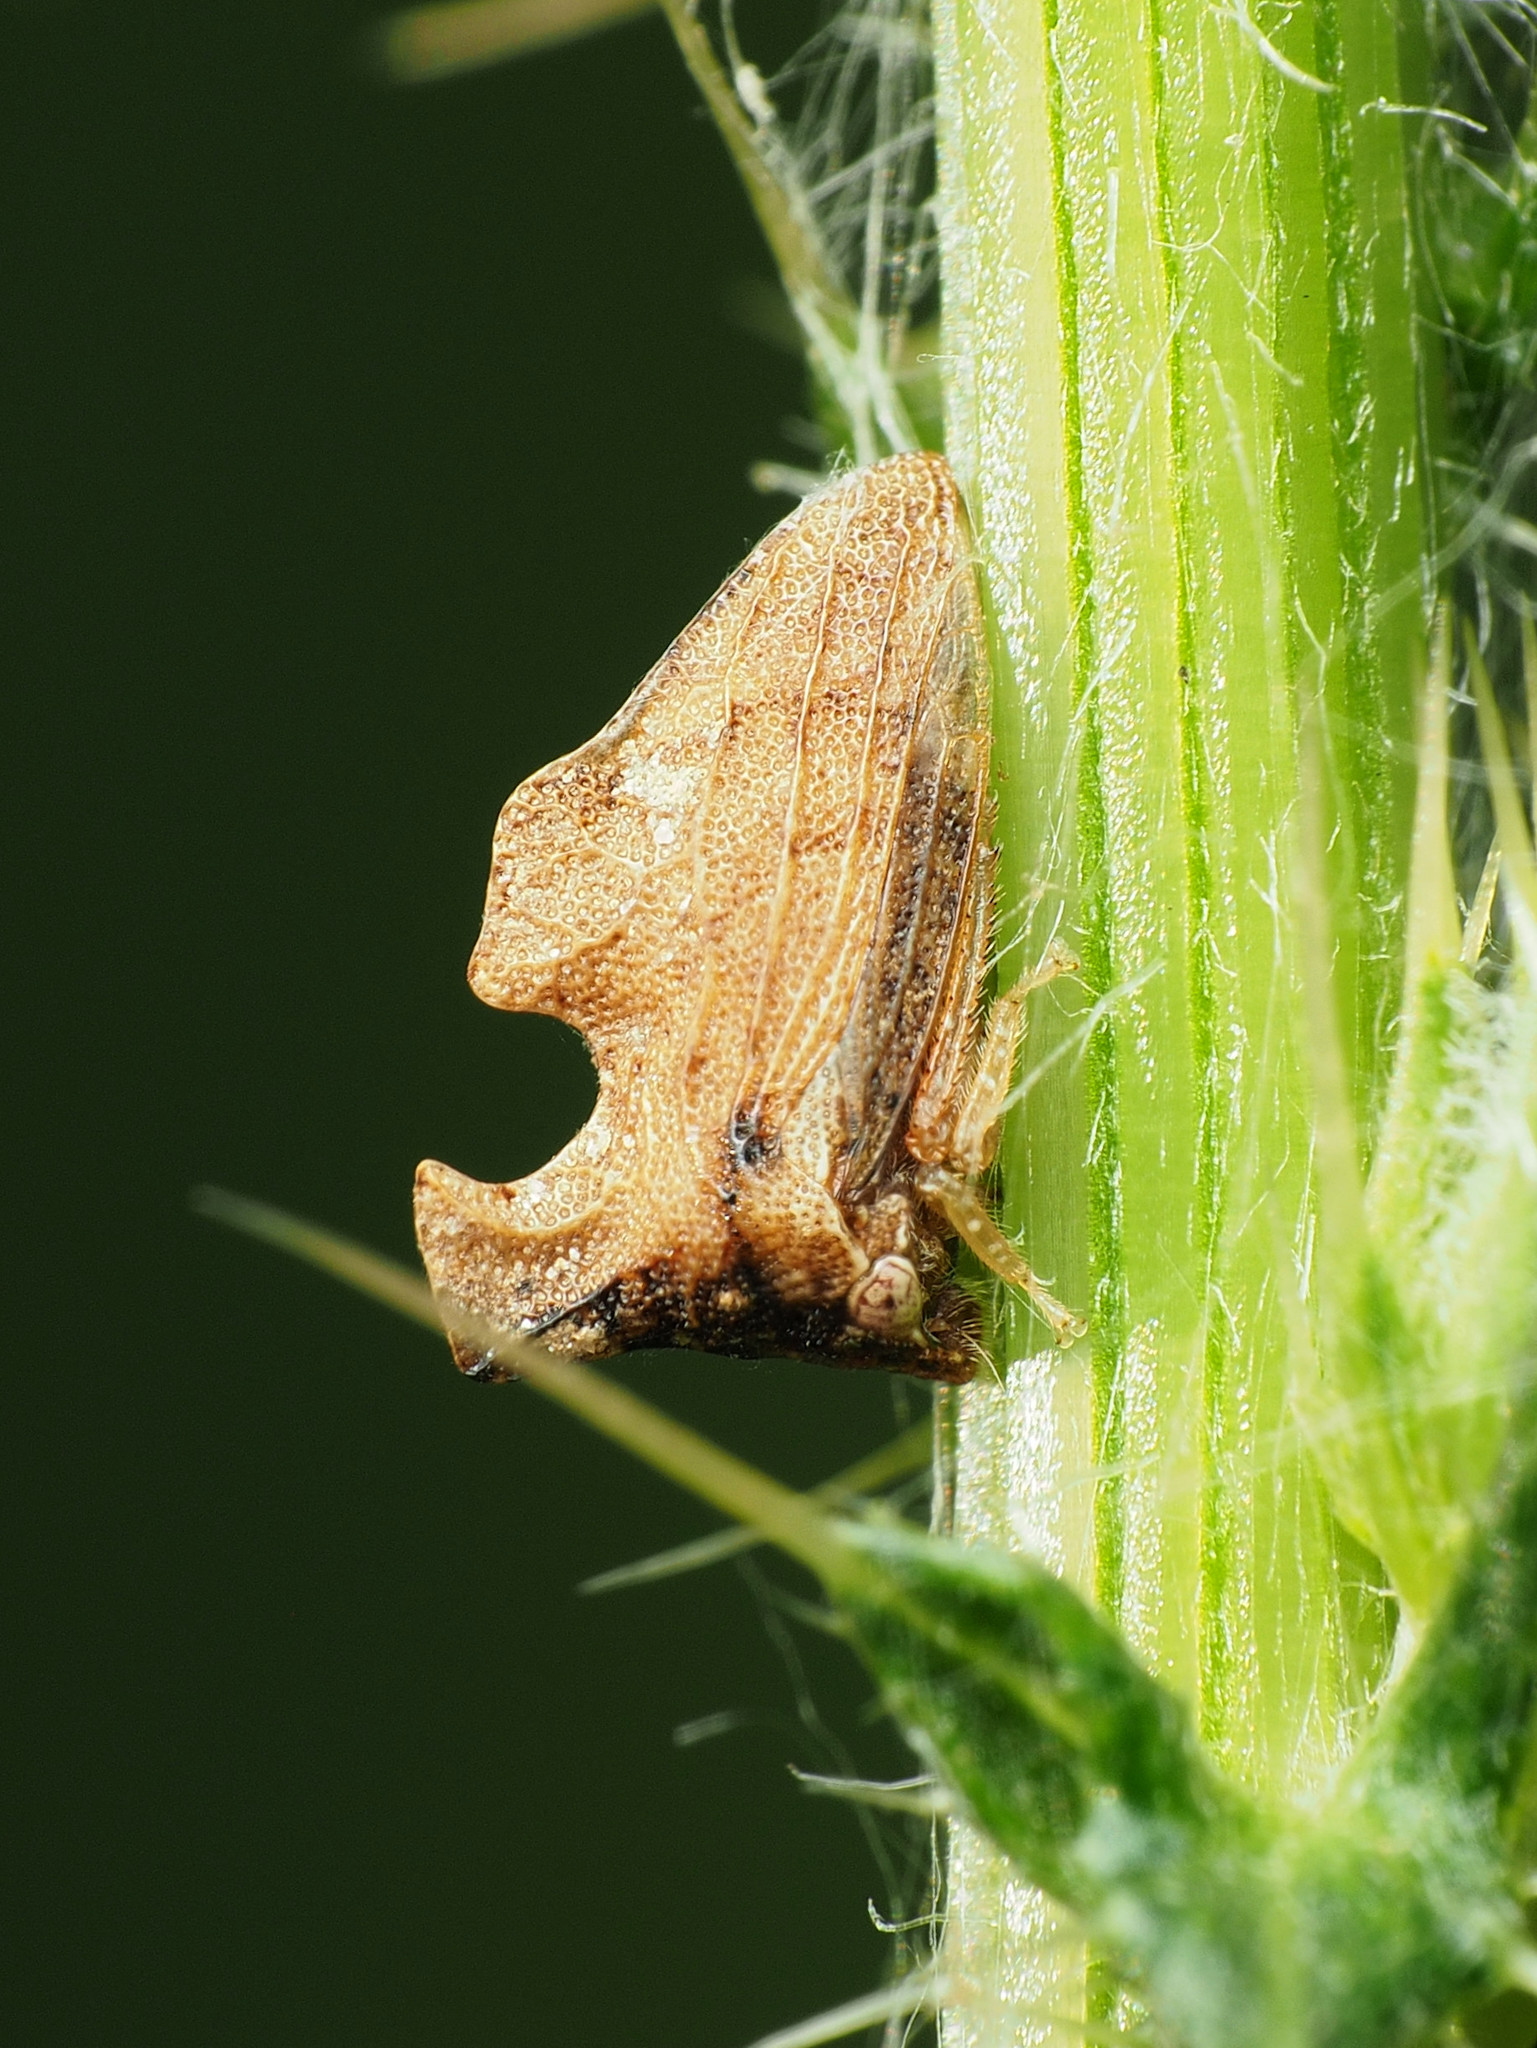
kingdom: Animalia
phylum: Arthropoda
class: Insecta
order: Hemiptera
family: Membracidae
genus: Entylia
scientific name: Entylia carinata
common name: Keeled treehopper
